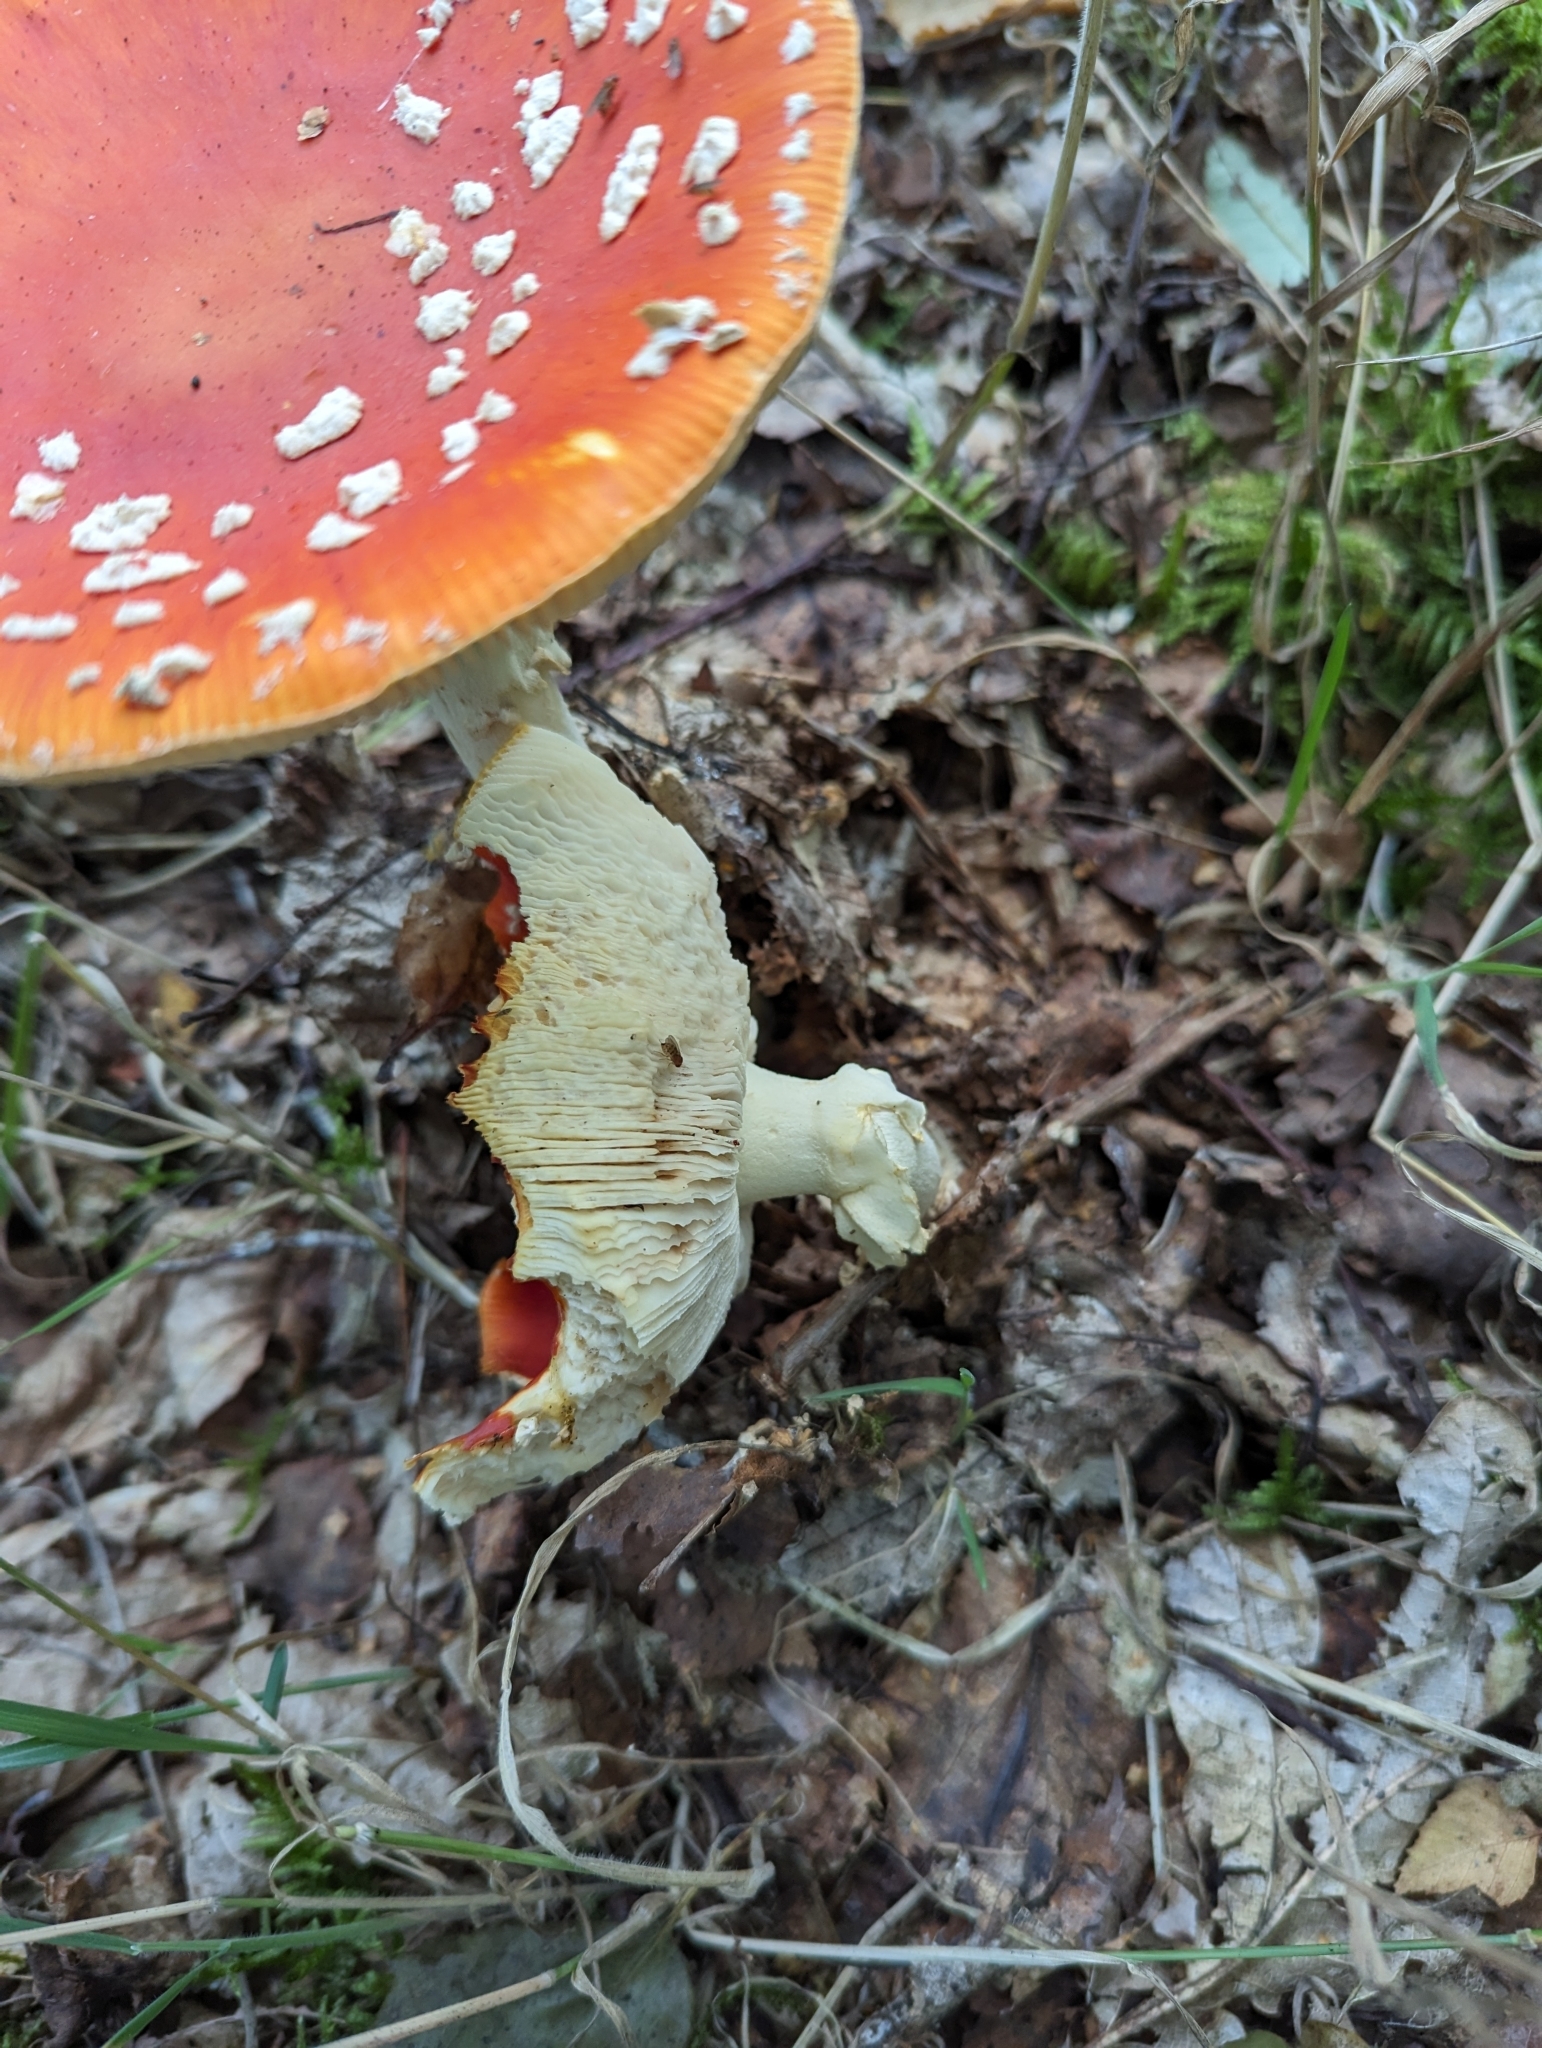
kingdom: Fungi
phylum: Basidiomycota
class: Agaricomycetes
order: Agaricales
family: Amanitaceae
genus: Amanita
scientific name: Amanita muscaria
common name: Fly agaric
